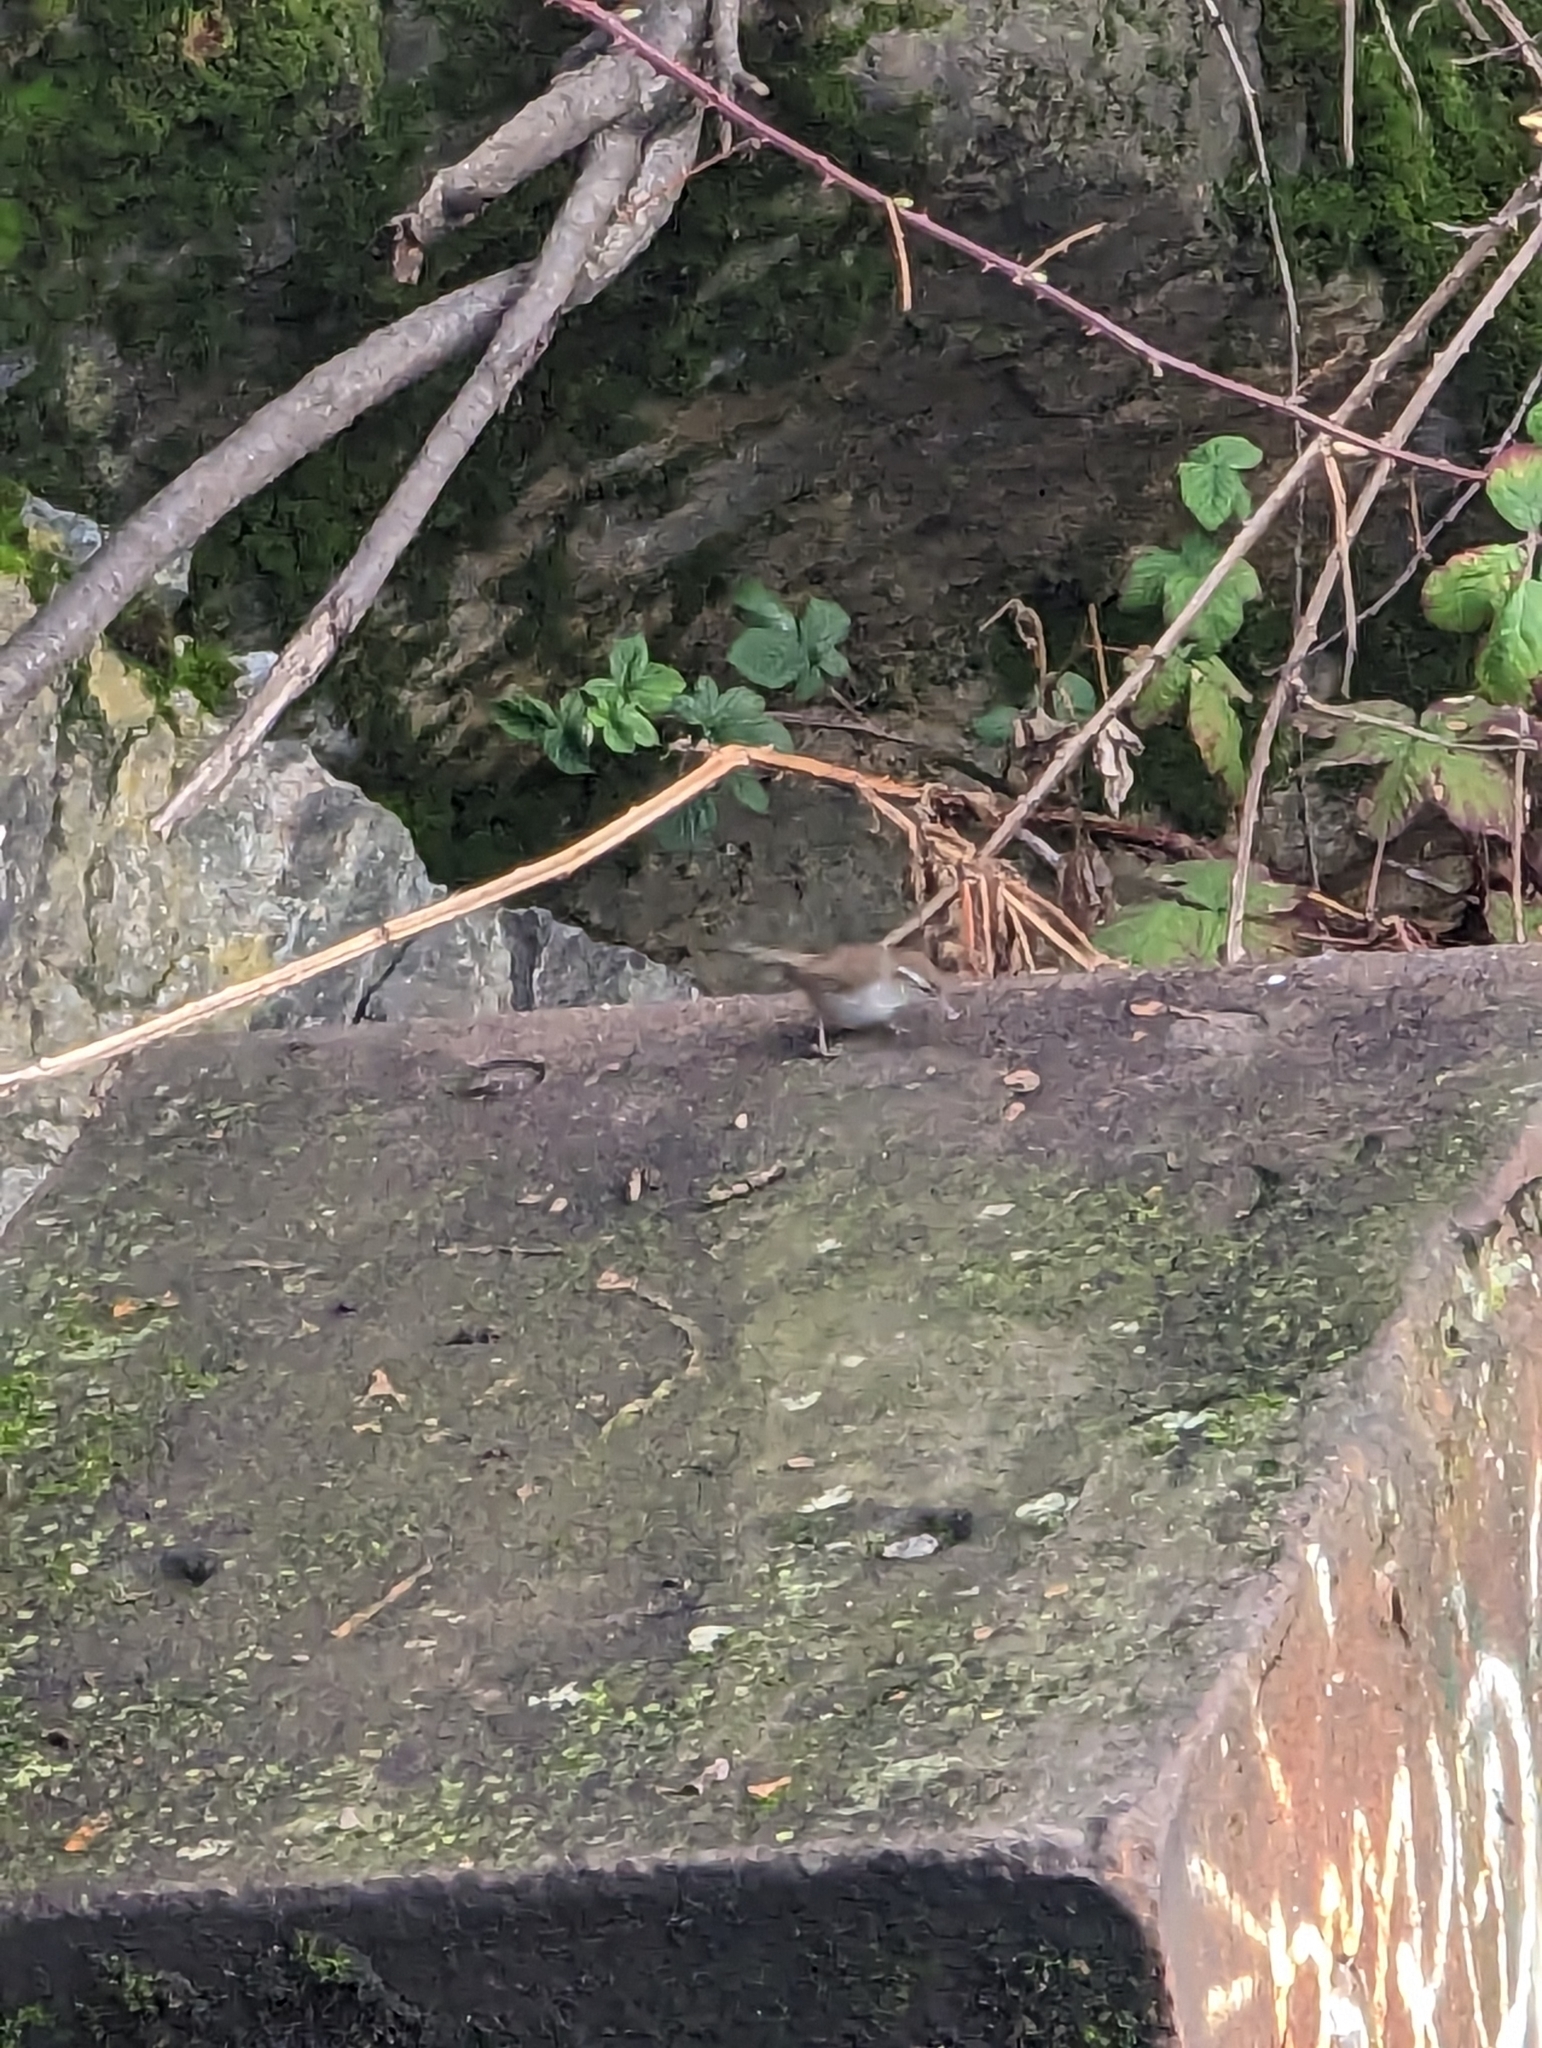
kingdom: Animalia
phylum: Chordata
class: Aves
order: Passeriformes
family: Troglodytidae
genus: Thryomanes
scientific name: Thryomanes bewickii
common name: Bewick's wren
